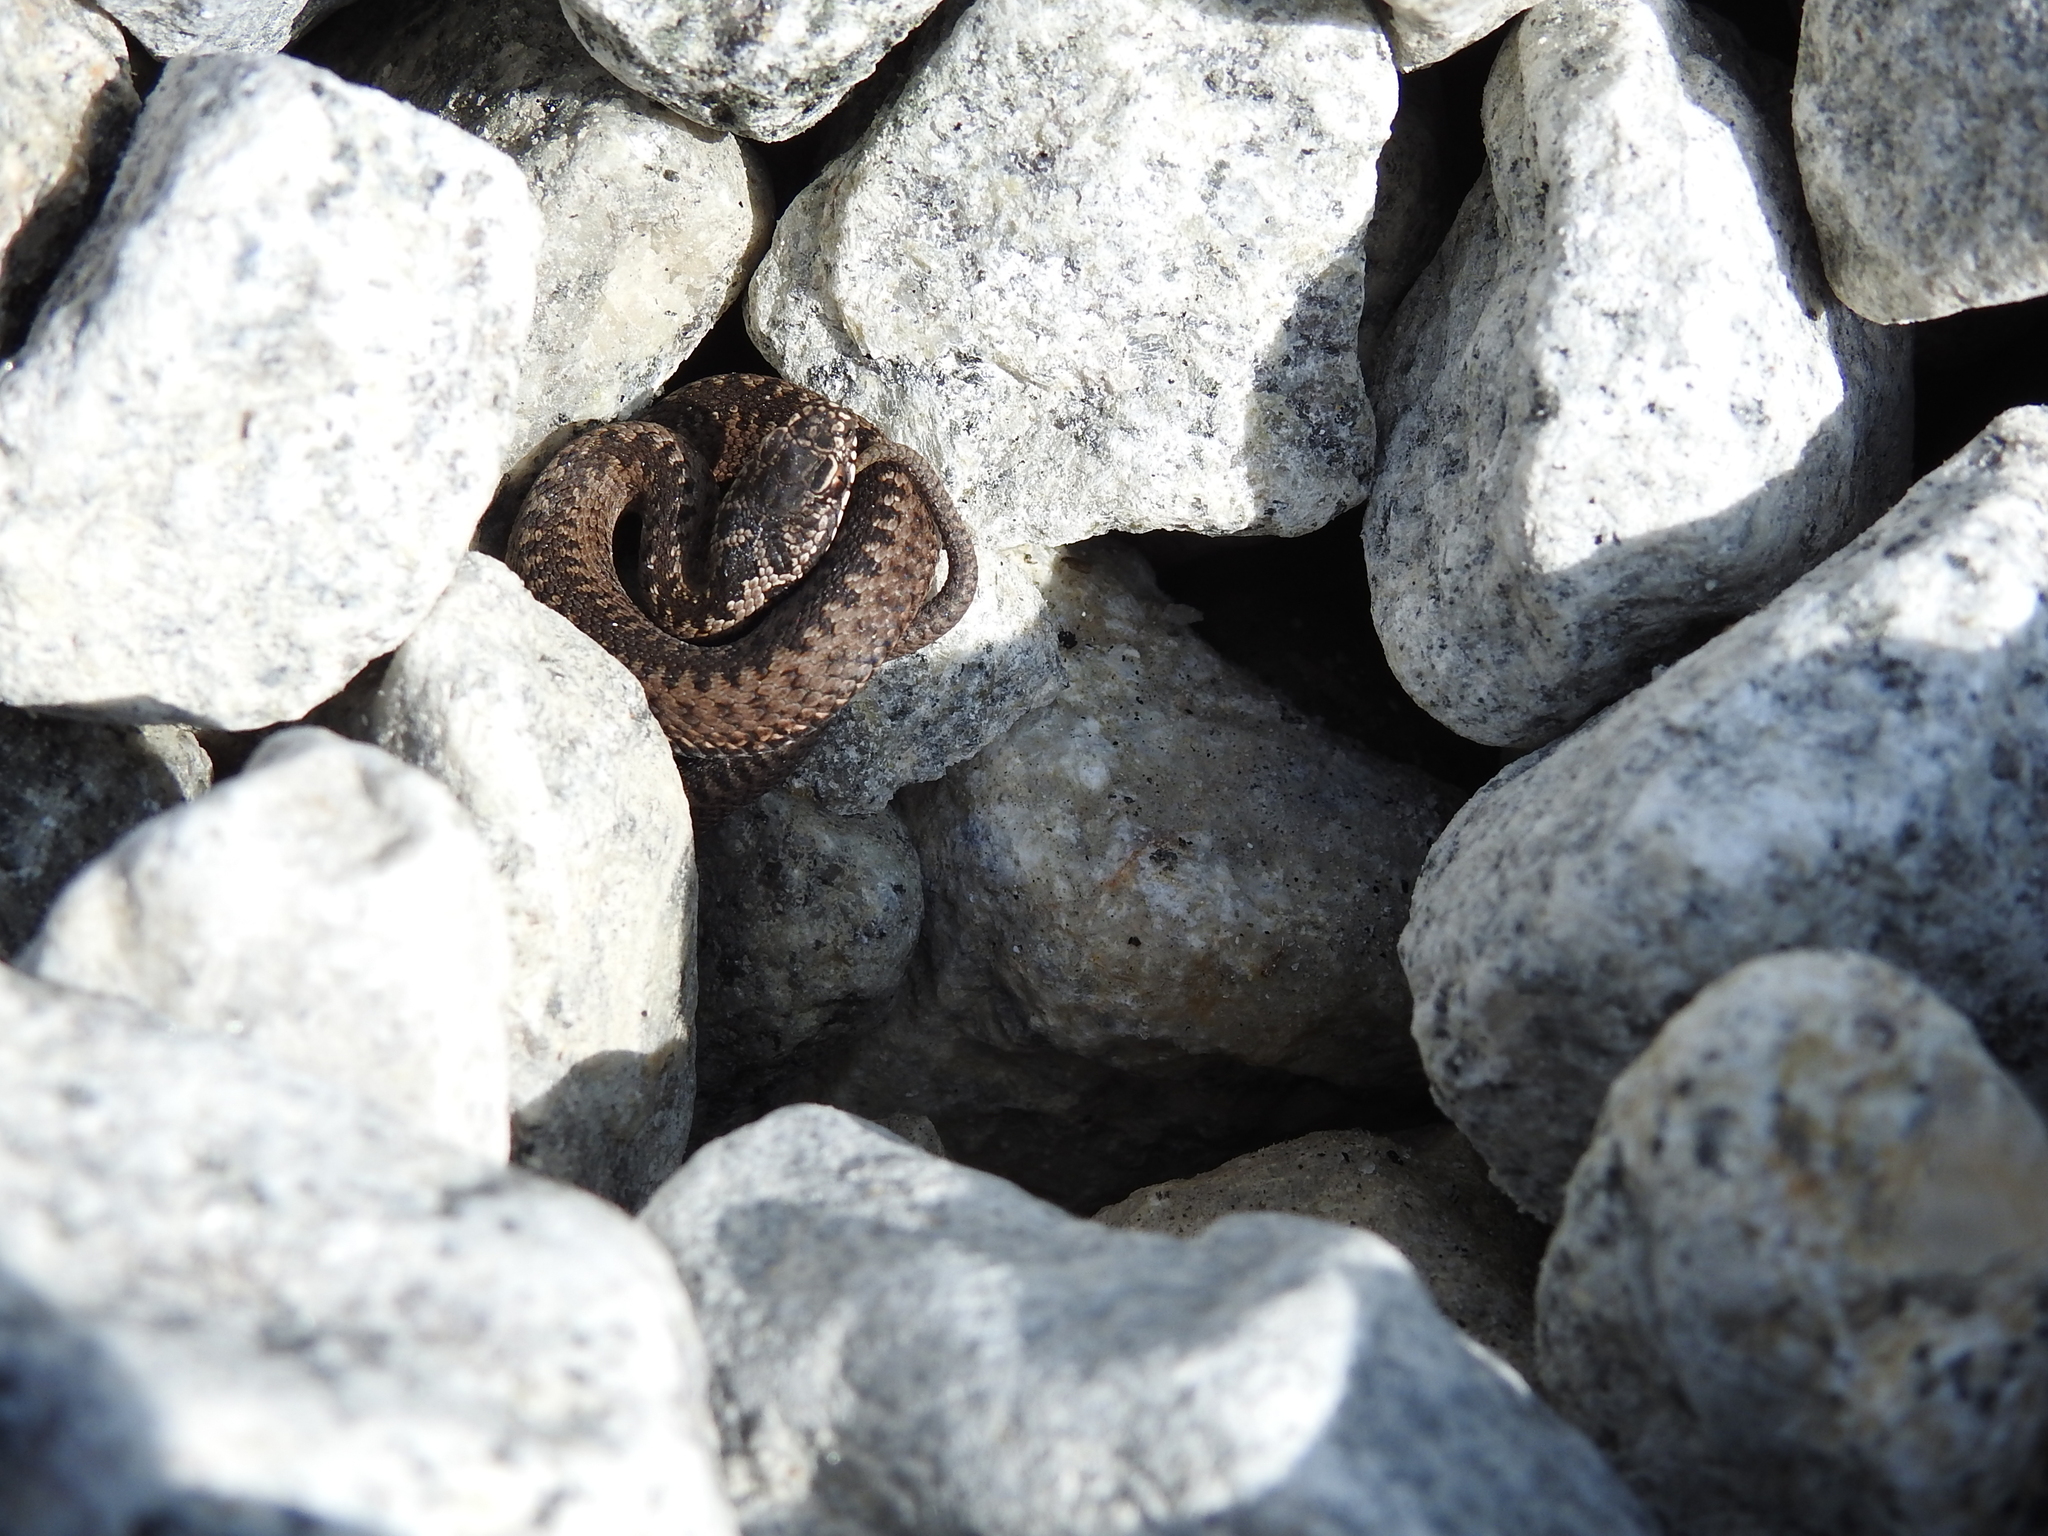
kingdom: Animalia
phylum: Chordata
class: Squamata
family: Viperidae
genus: Vipera
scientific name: Vipera berus
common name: Adder
